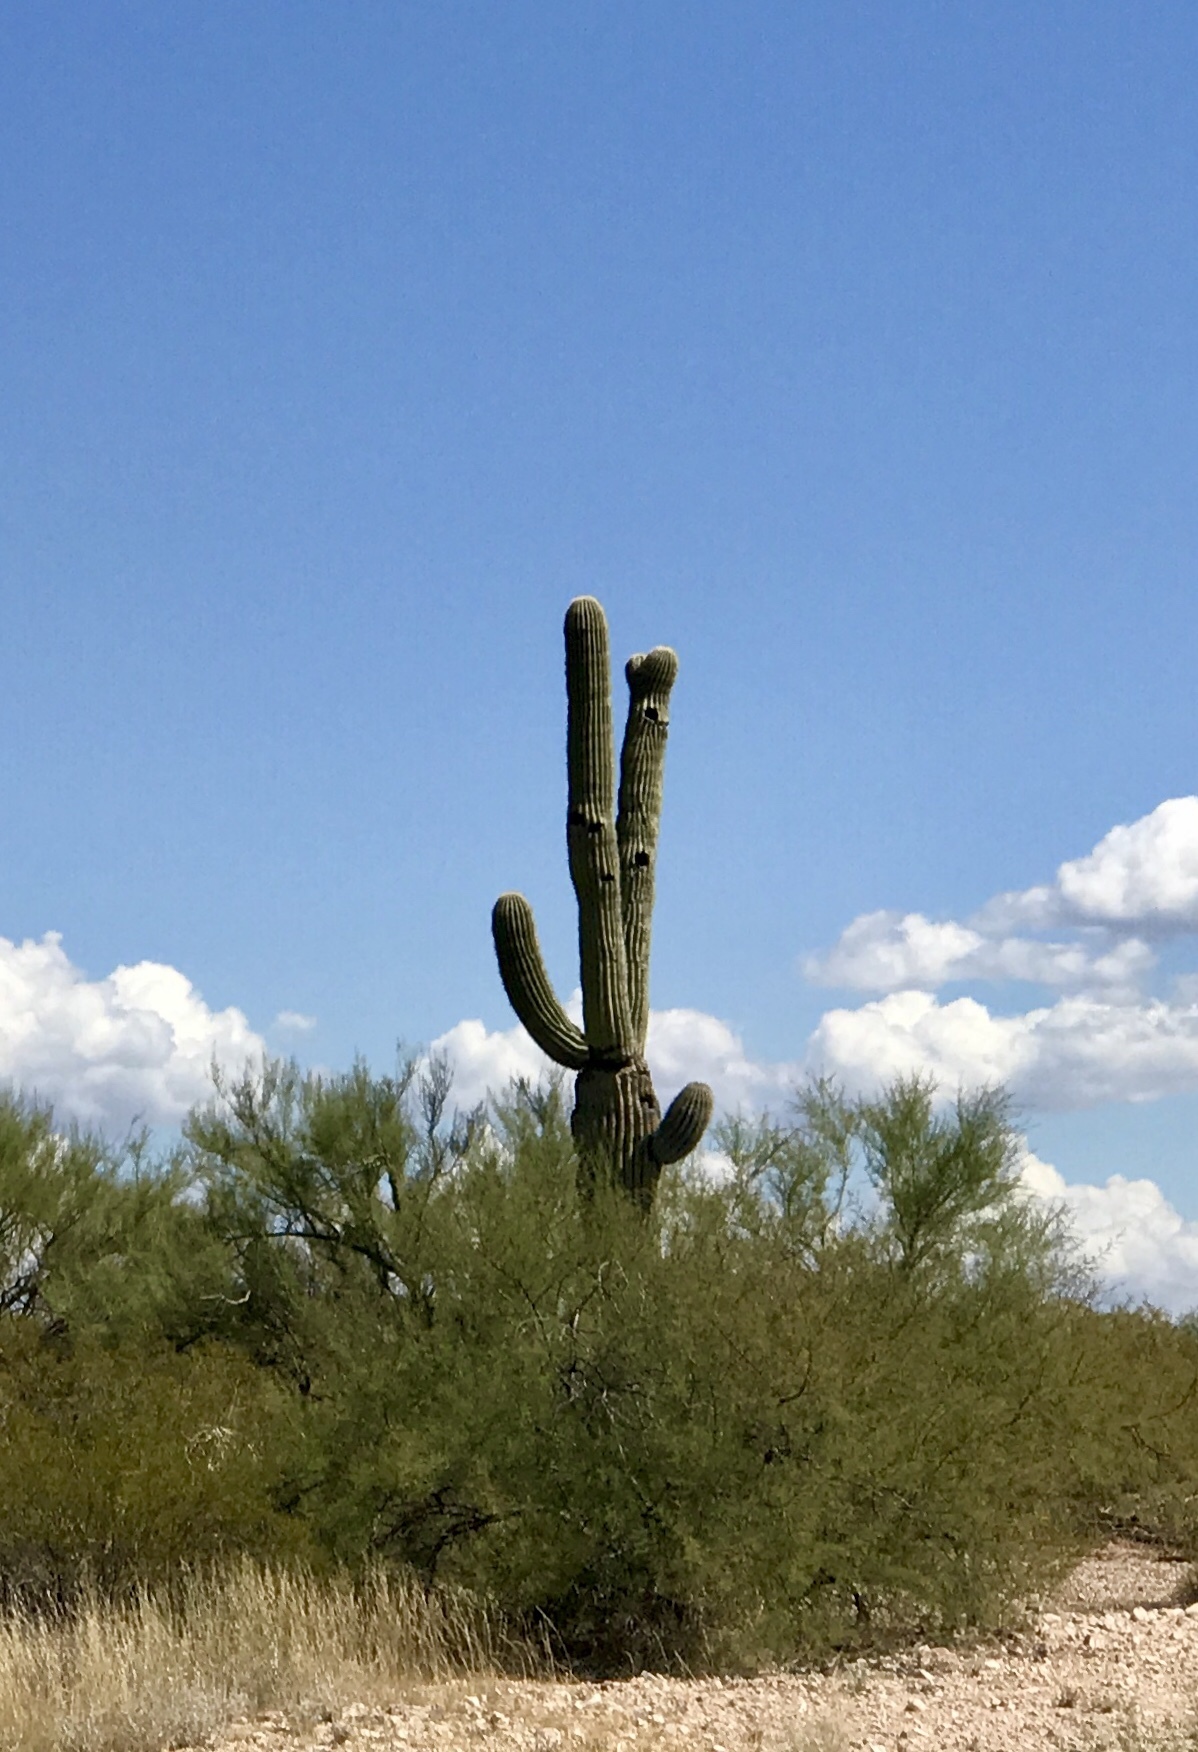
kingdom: Plantae
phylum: Tracheophyta
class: Magnoliopsida
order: Caryophyllales
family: Cactaceae
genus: Carnegiea
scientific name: Carnegiea gigantea
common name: Saguaro
